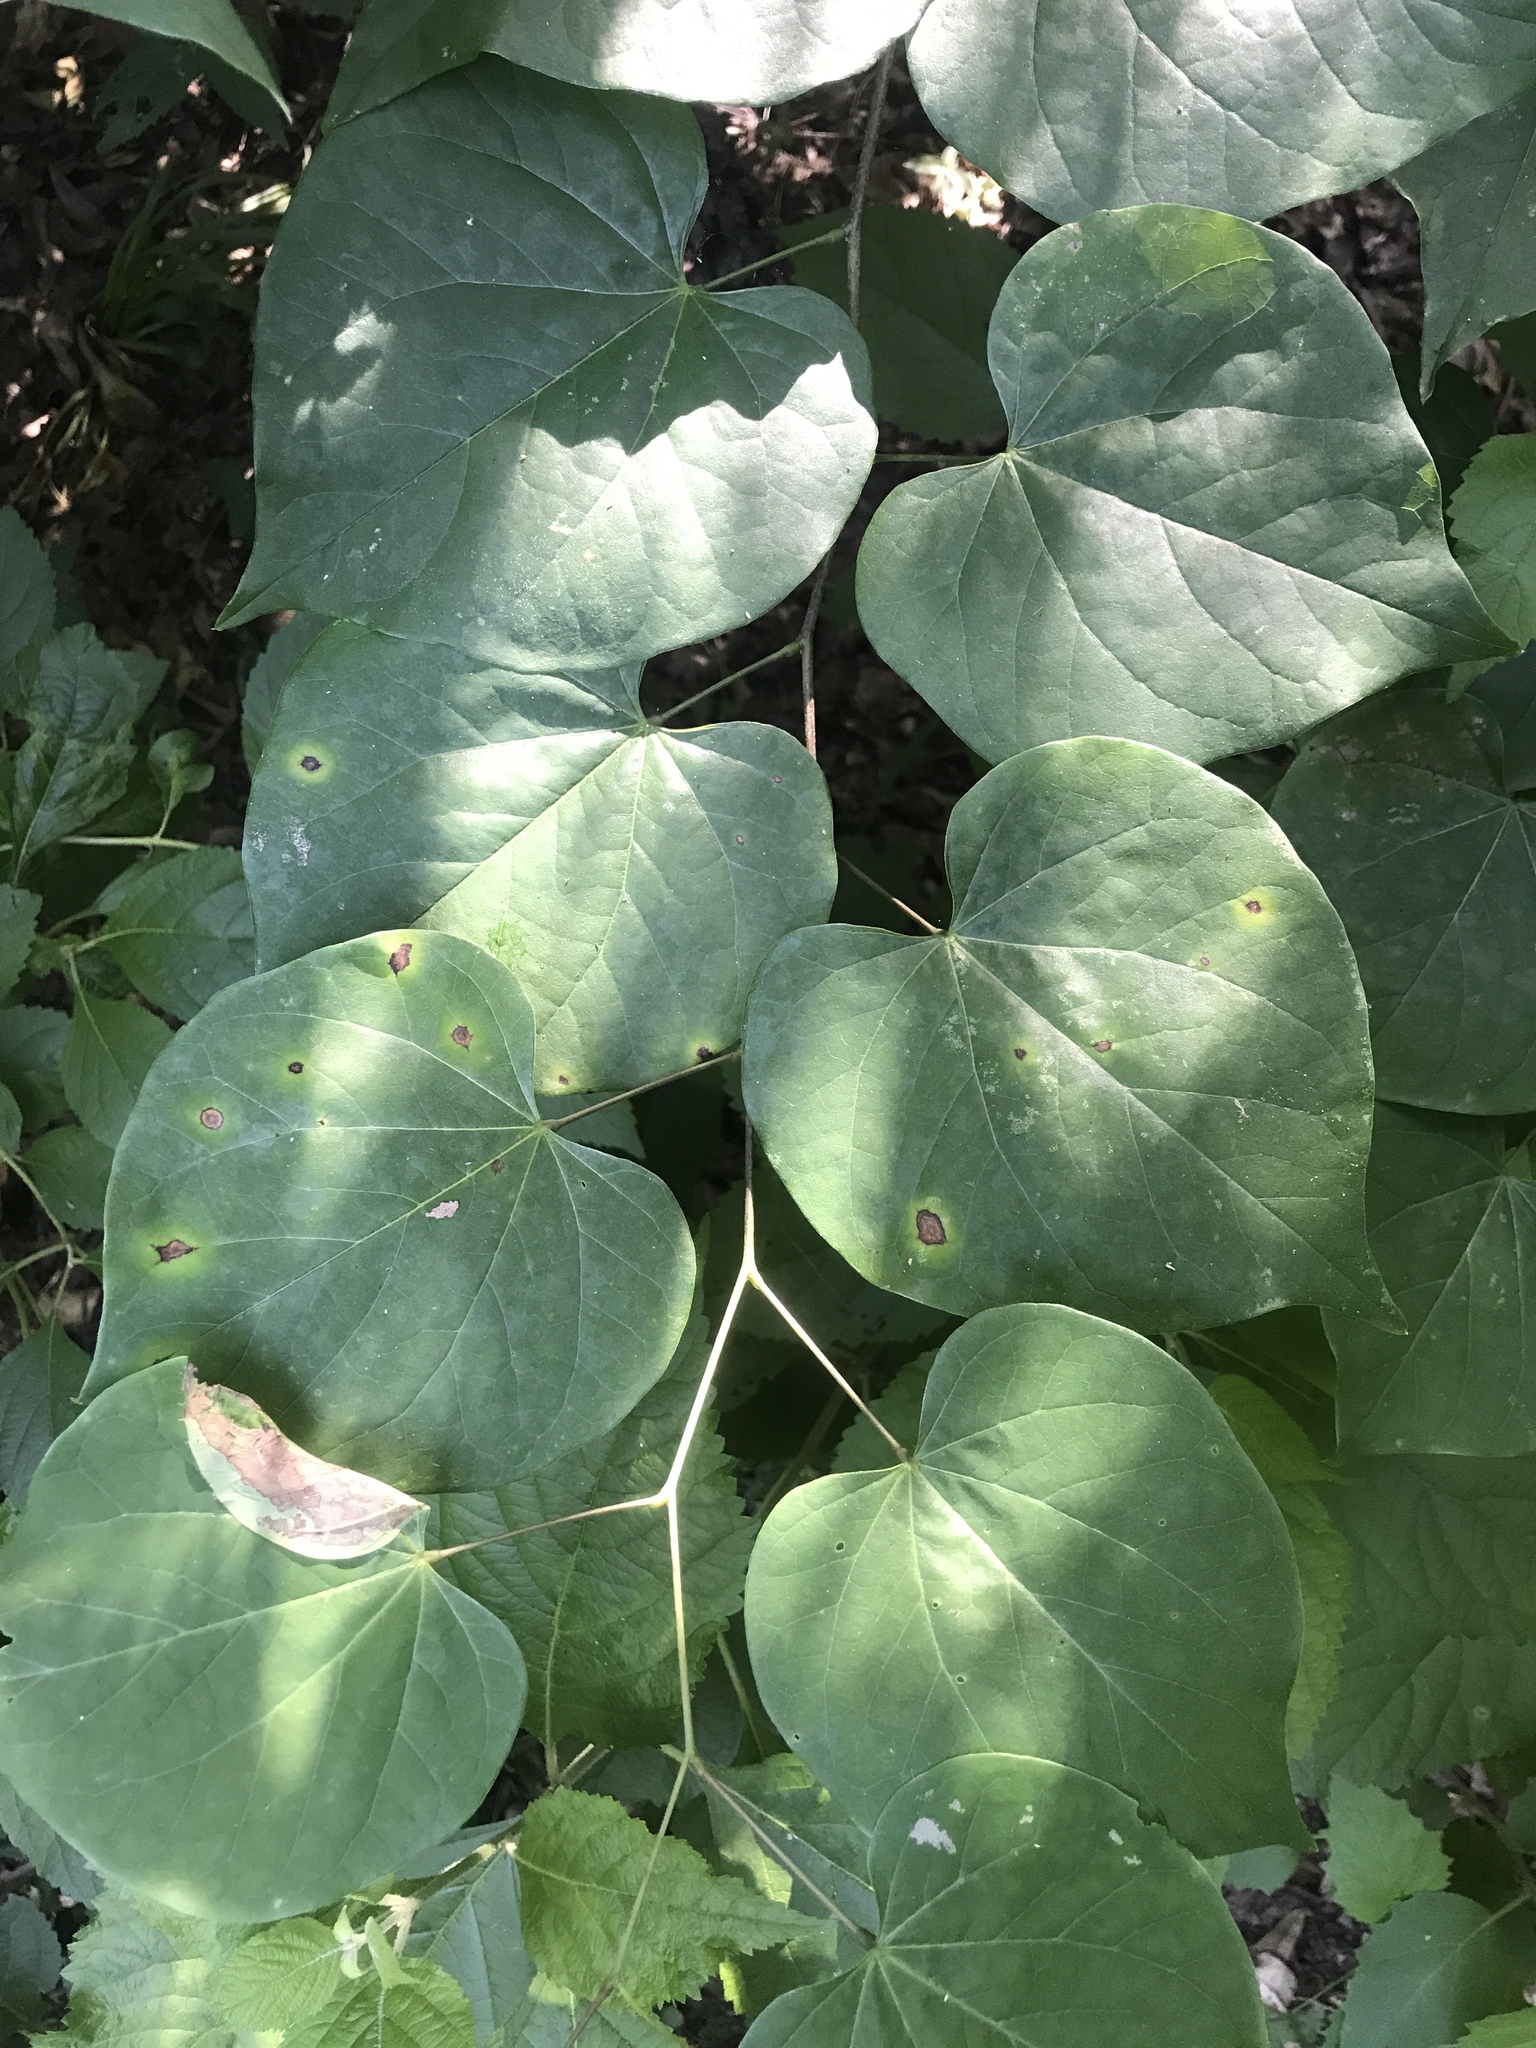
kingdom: Plantae
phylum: Tracheophyta
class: Magnoliopsida
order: Fabales
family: Fabaceae
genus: Cercis
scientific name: Cercis canadensis
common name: Eastern redbud
